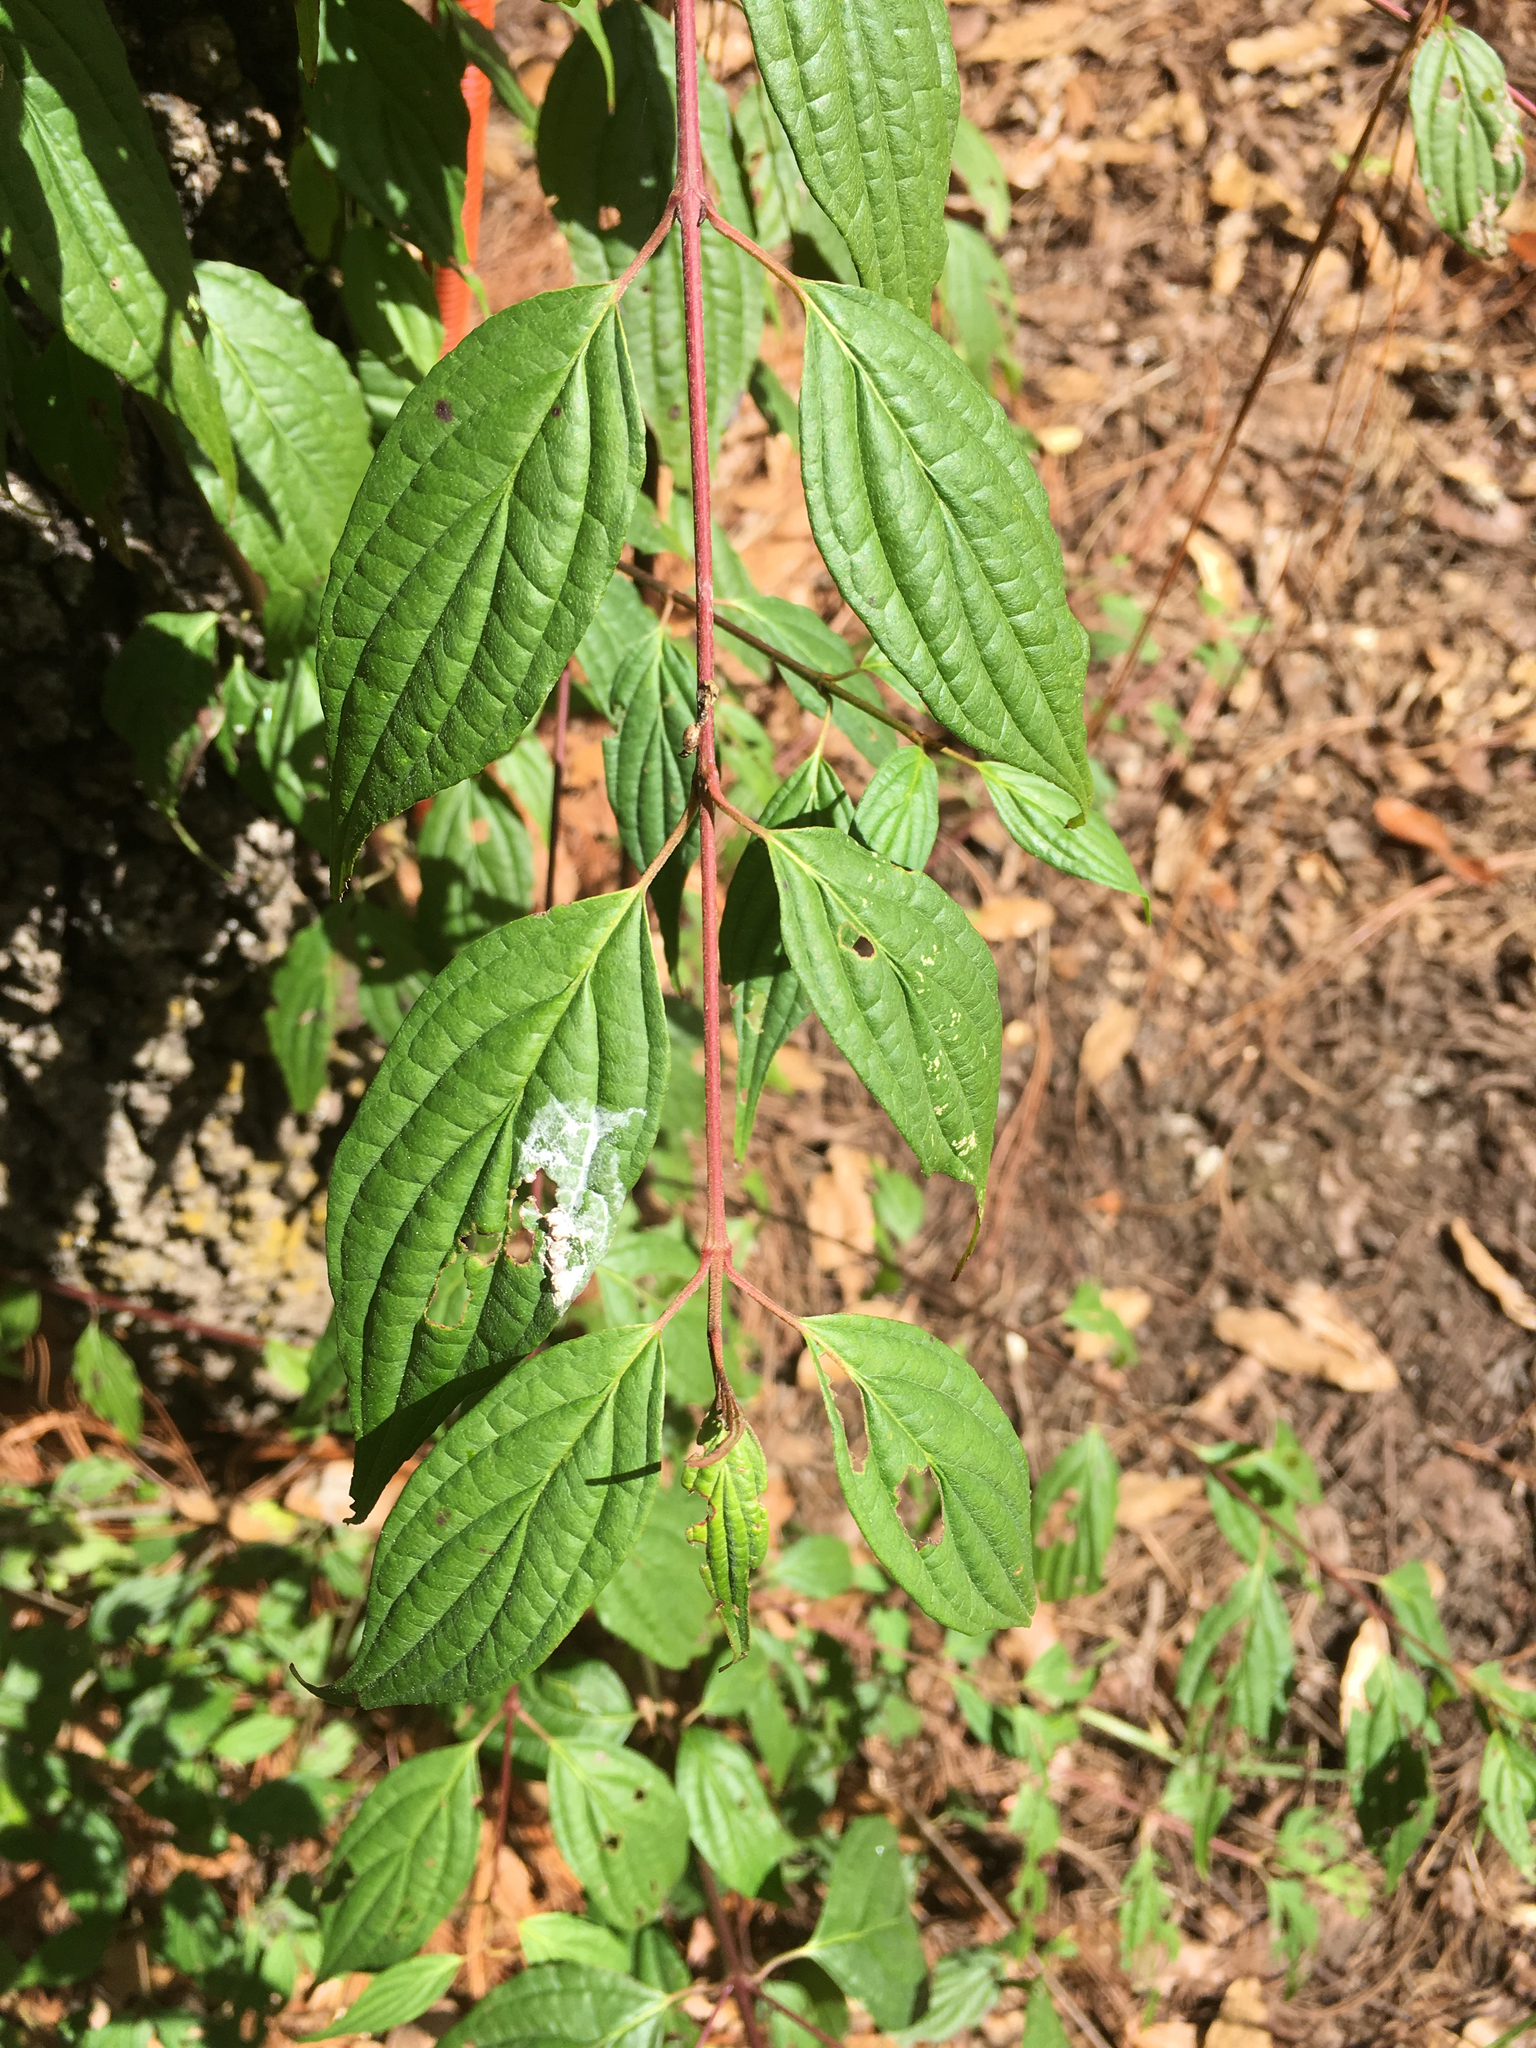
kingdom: Plantae
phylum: Tracheophyta
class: Magnoliopsida
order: Cornales
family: Cornaceae
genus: Cornus
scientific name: Cornus excelsa
